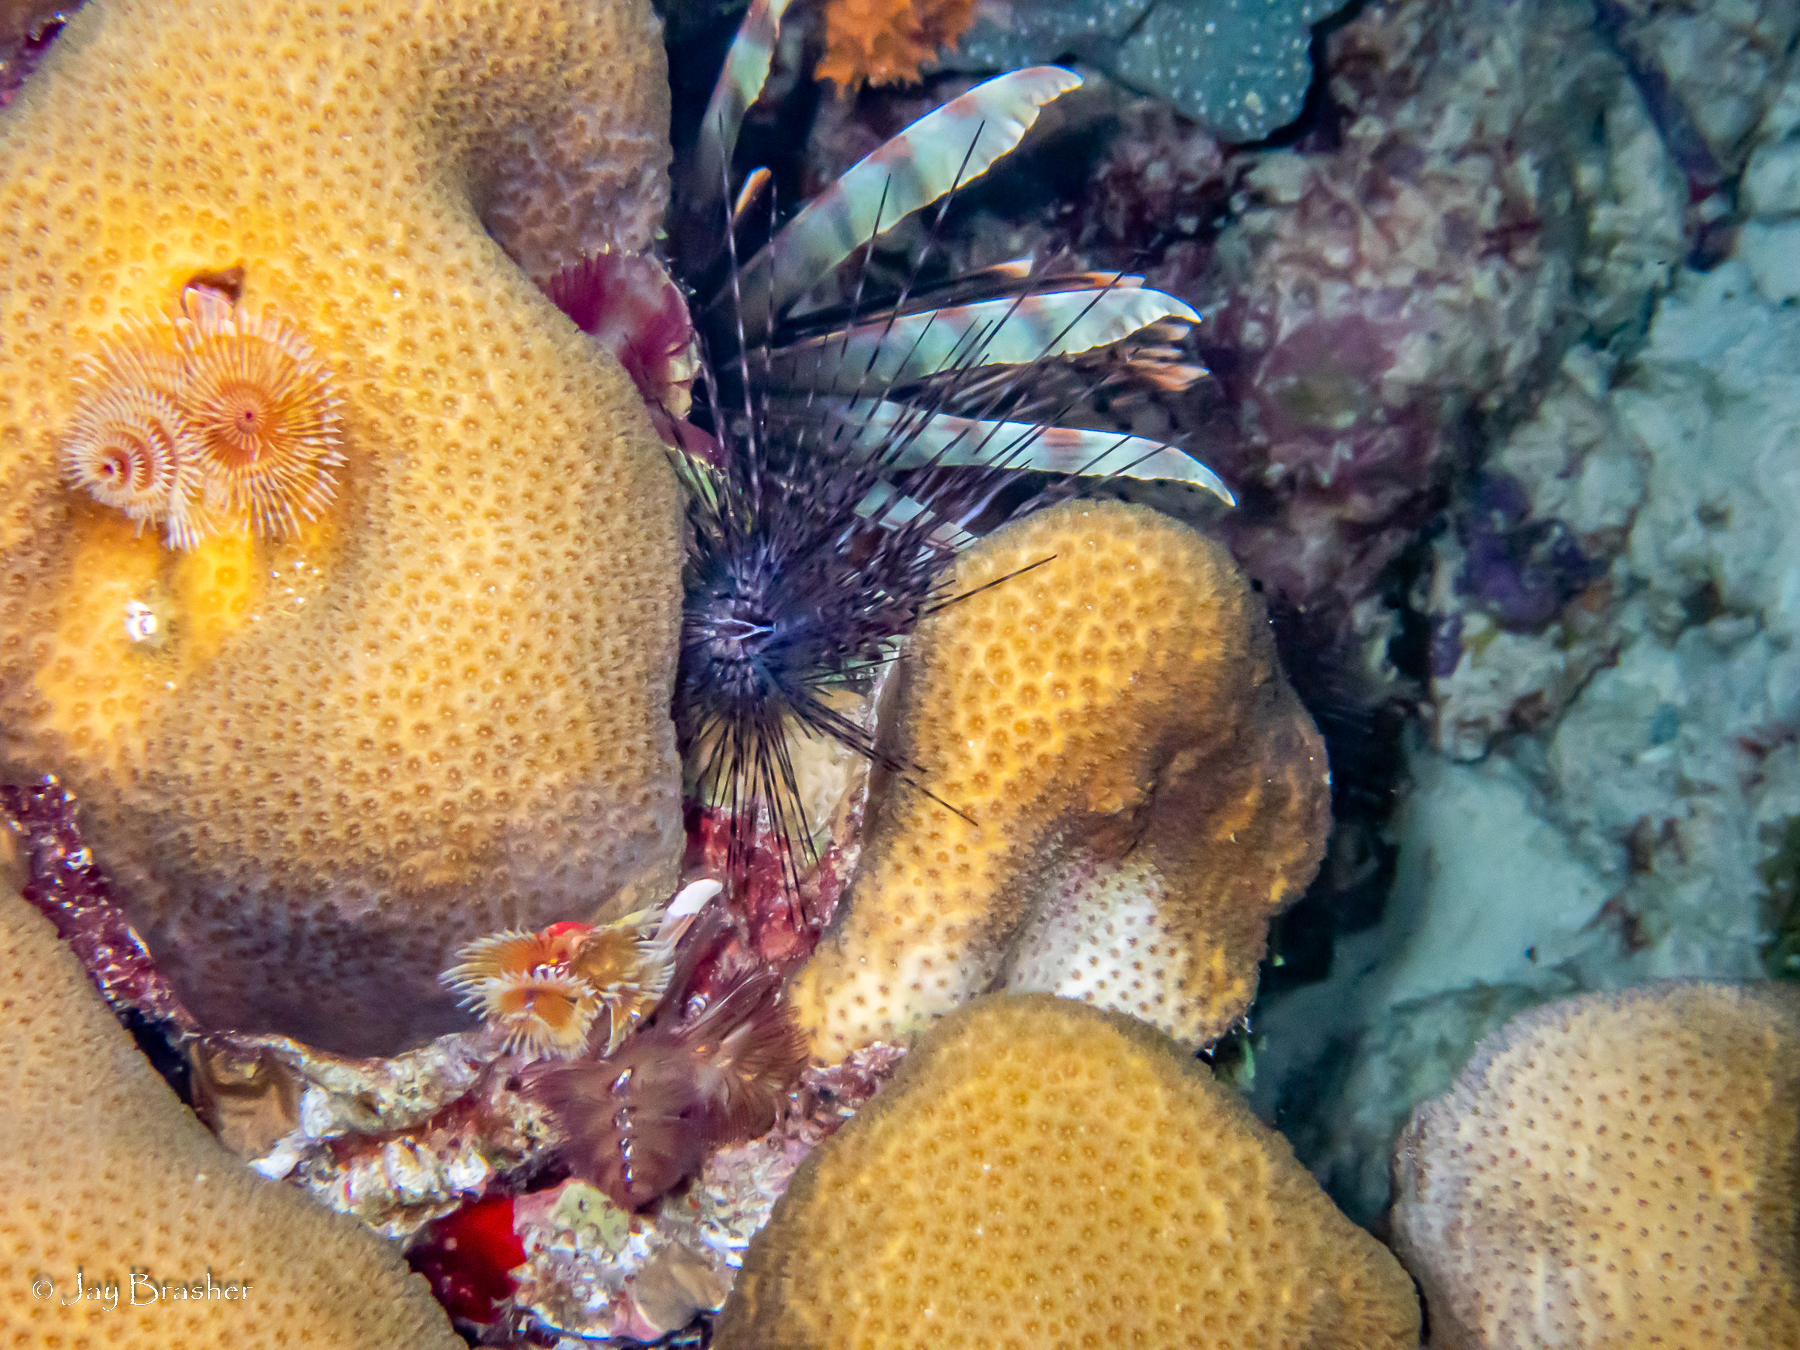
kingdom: Animalia
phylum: Cnidaria
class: Anthozoa
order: Scleractinia
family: Merulinidae
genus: Orbicella
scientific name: Orbicella annularis
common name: Boulder star coral
